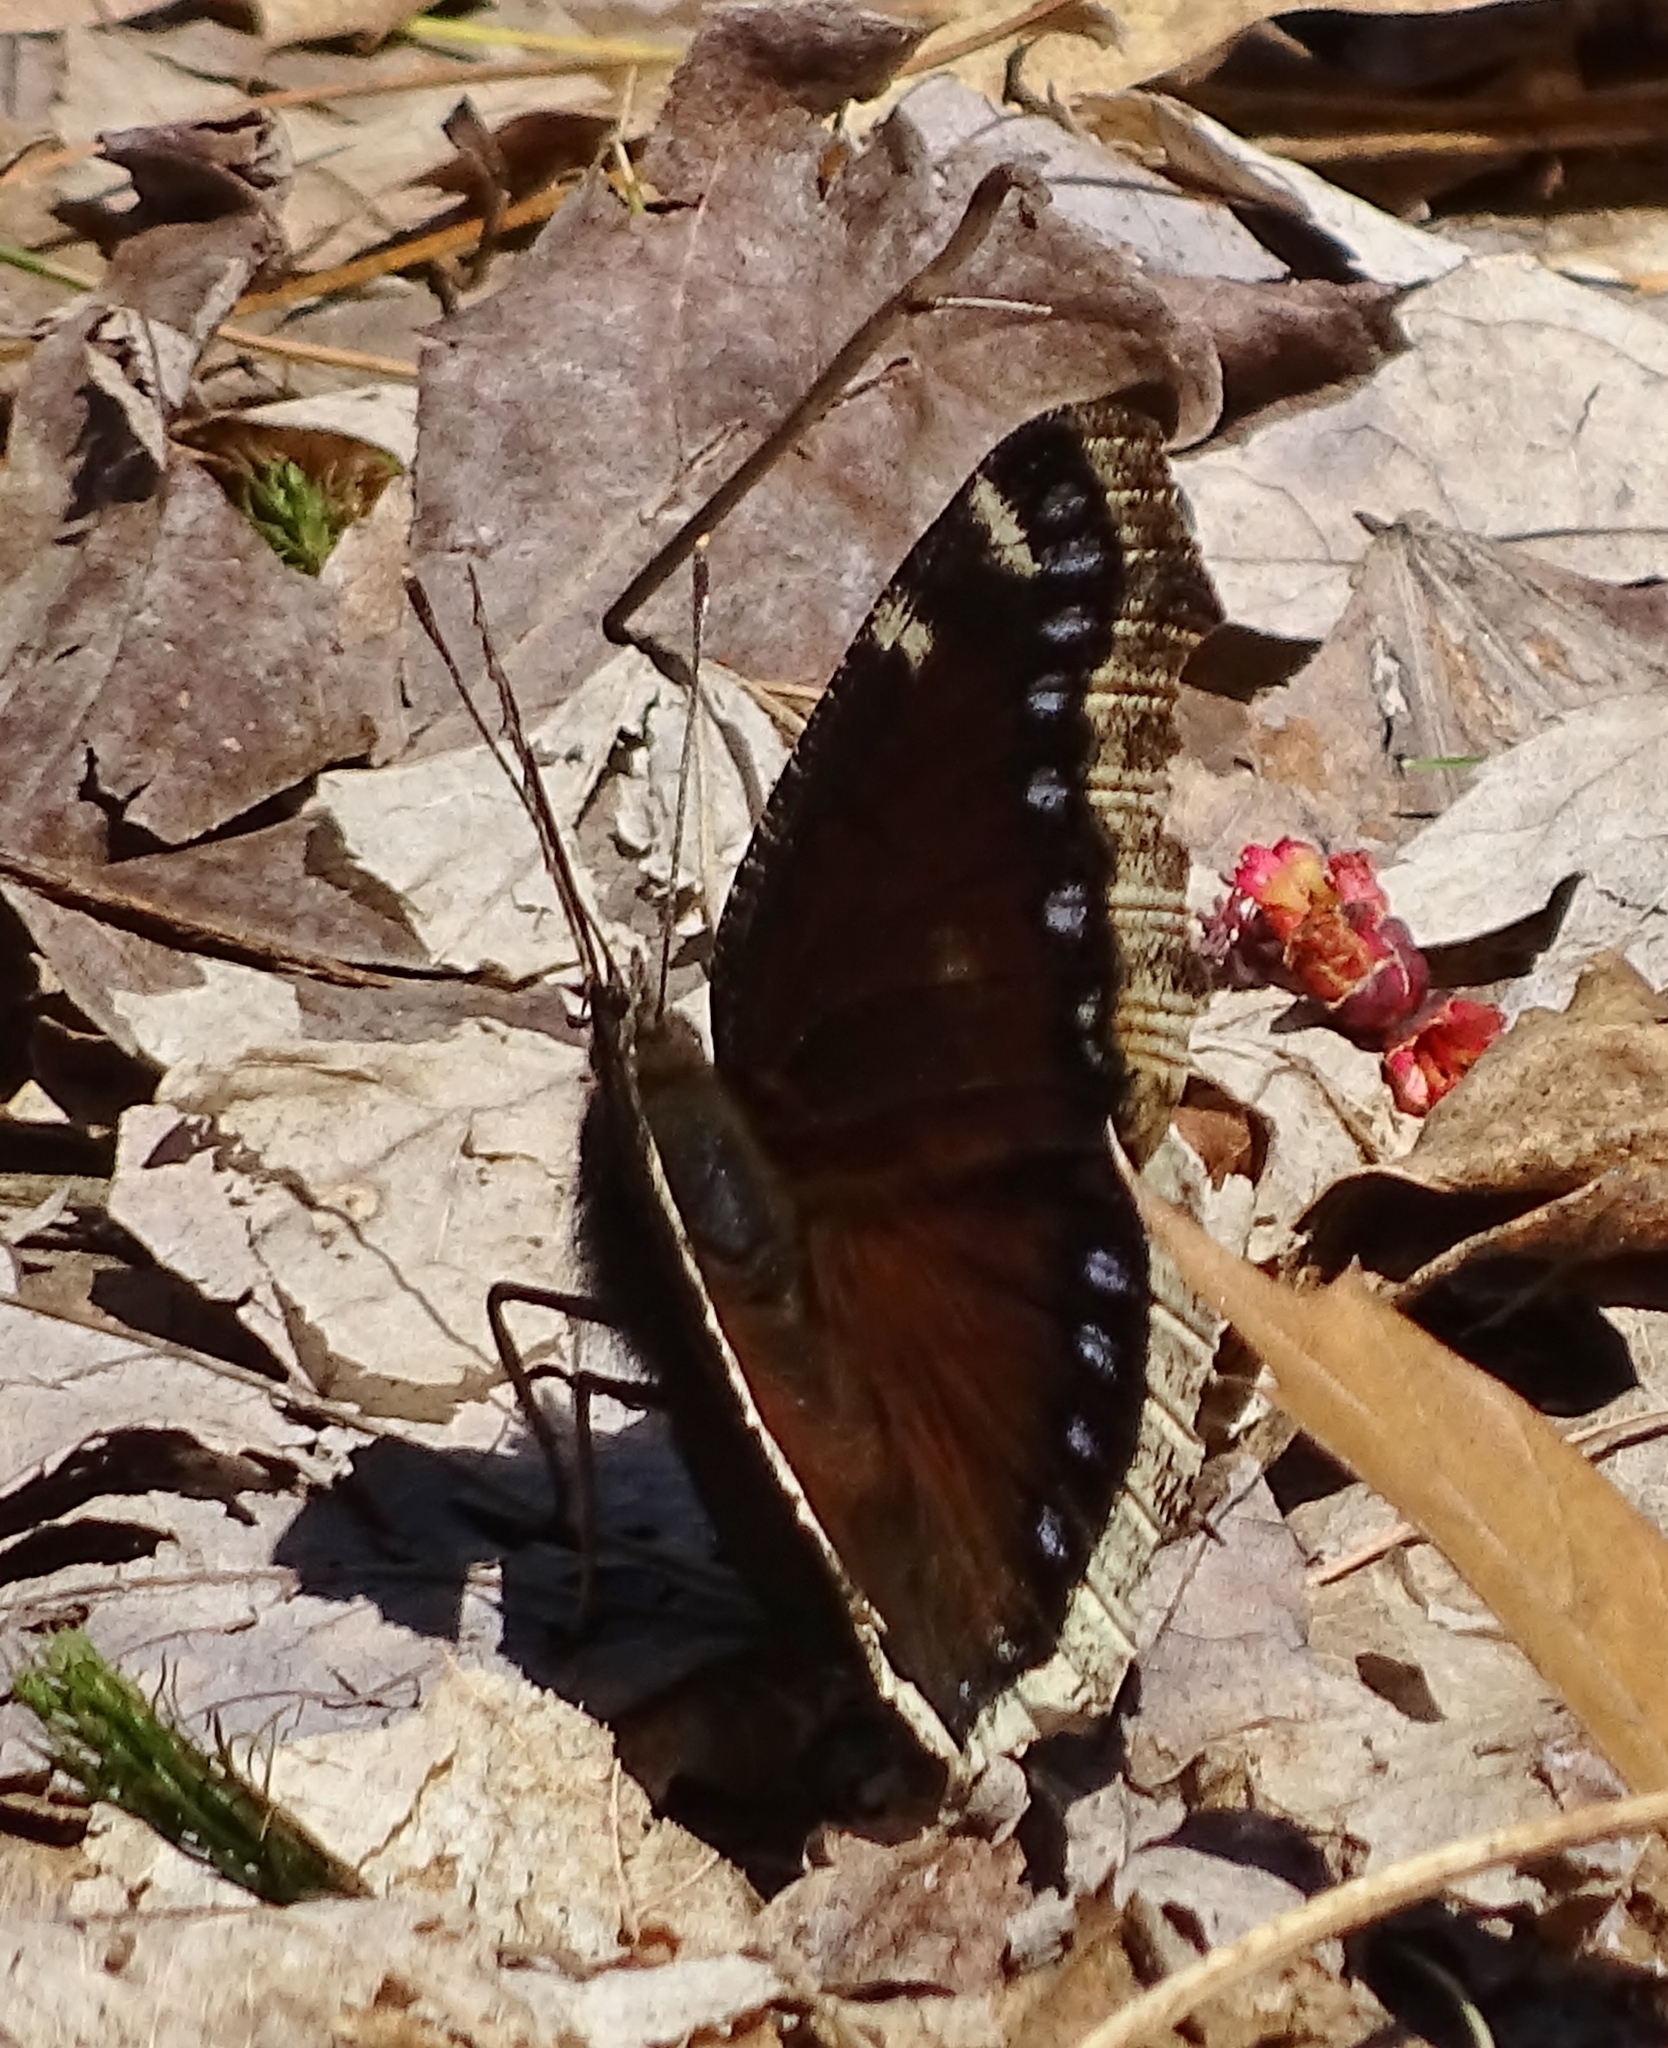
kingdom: Animalia
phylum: Arthropoda
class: Insecta
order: Lepidoptera
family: Nymphalidae
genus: Nymphalis
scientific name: Nymphalis antiopa
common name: Camberwell beauty
